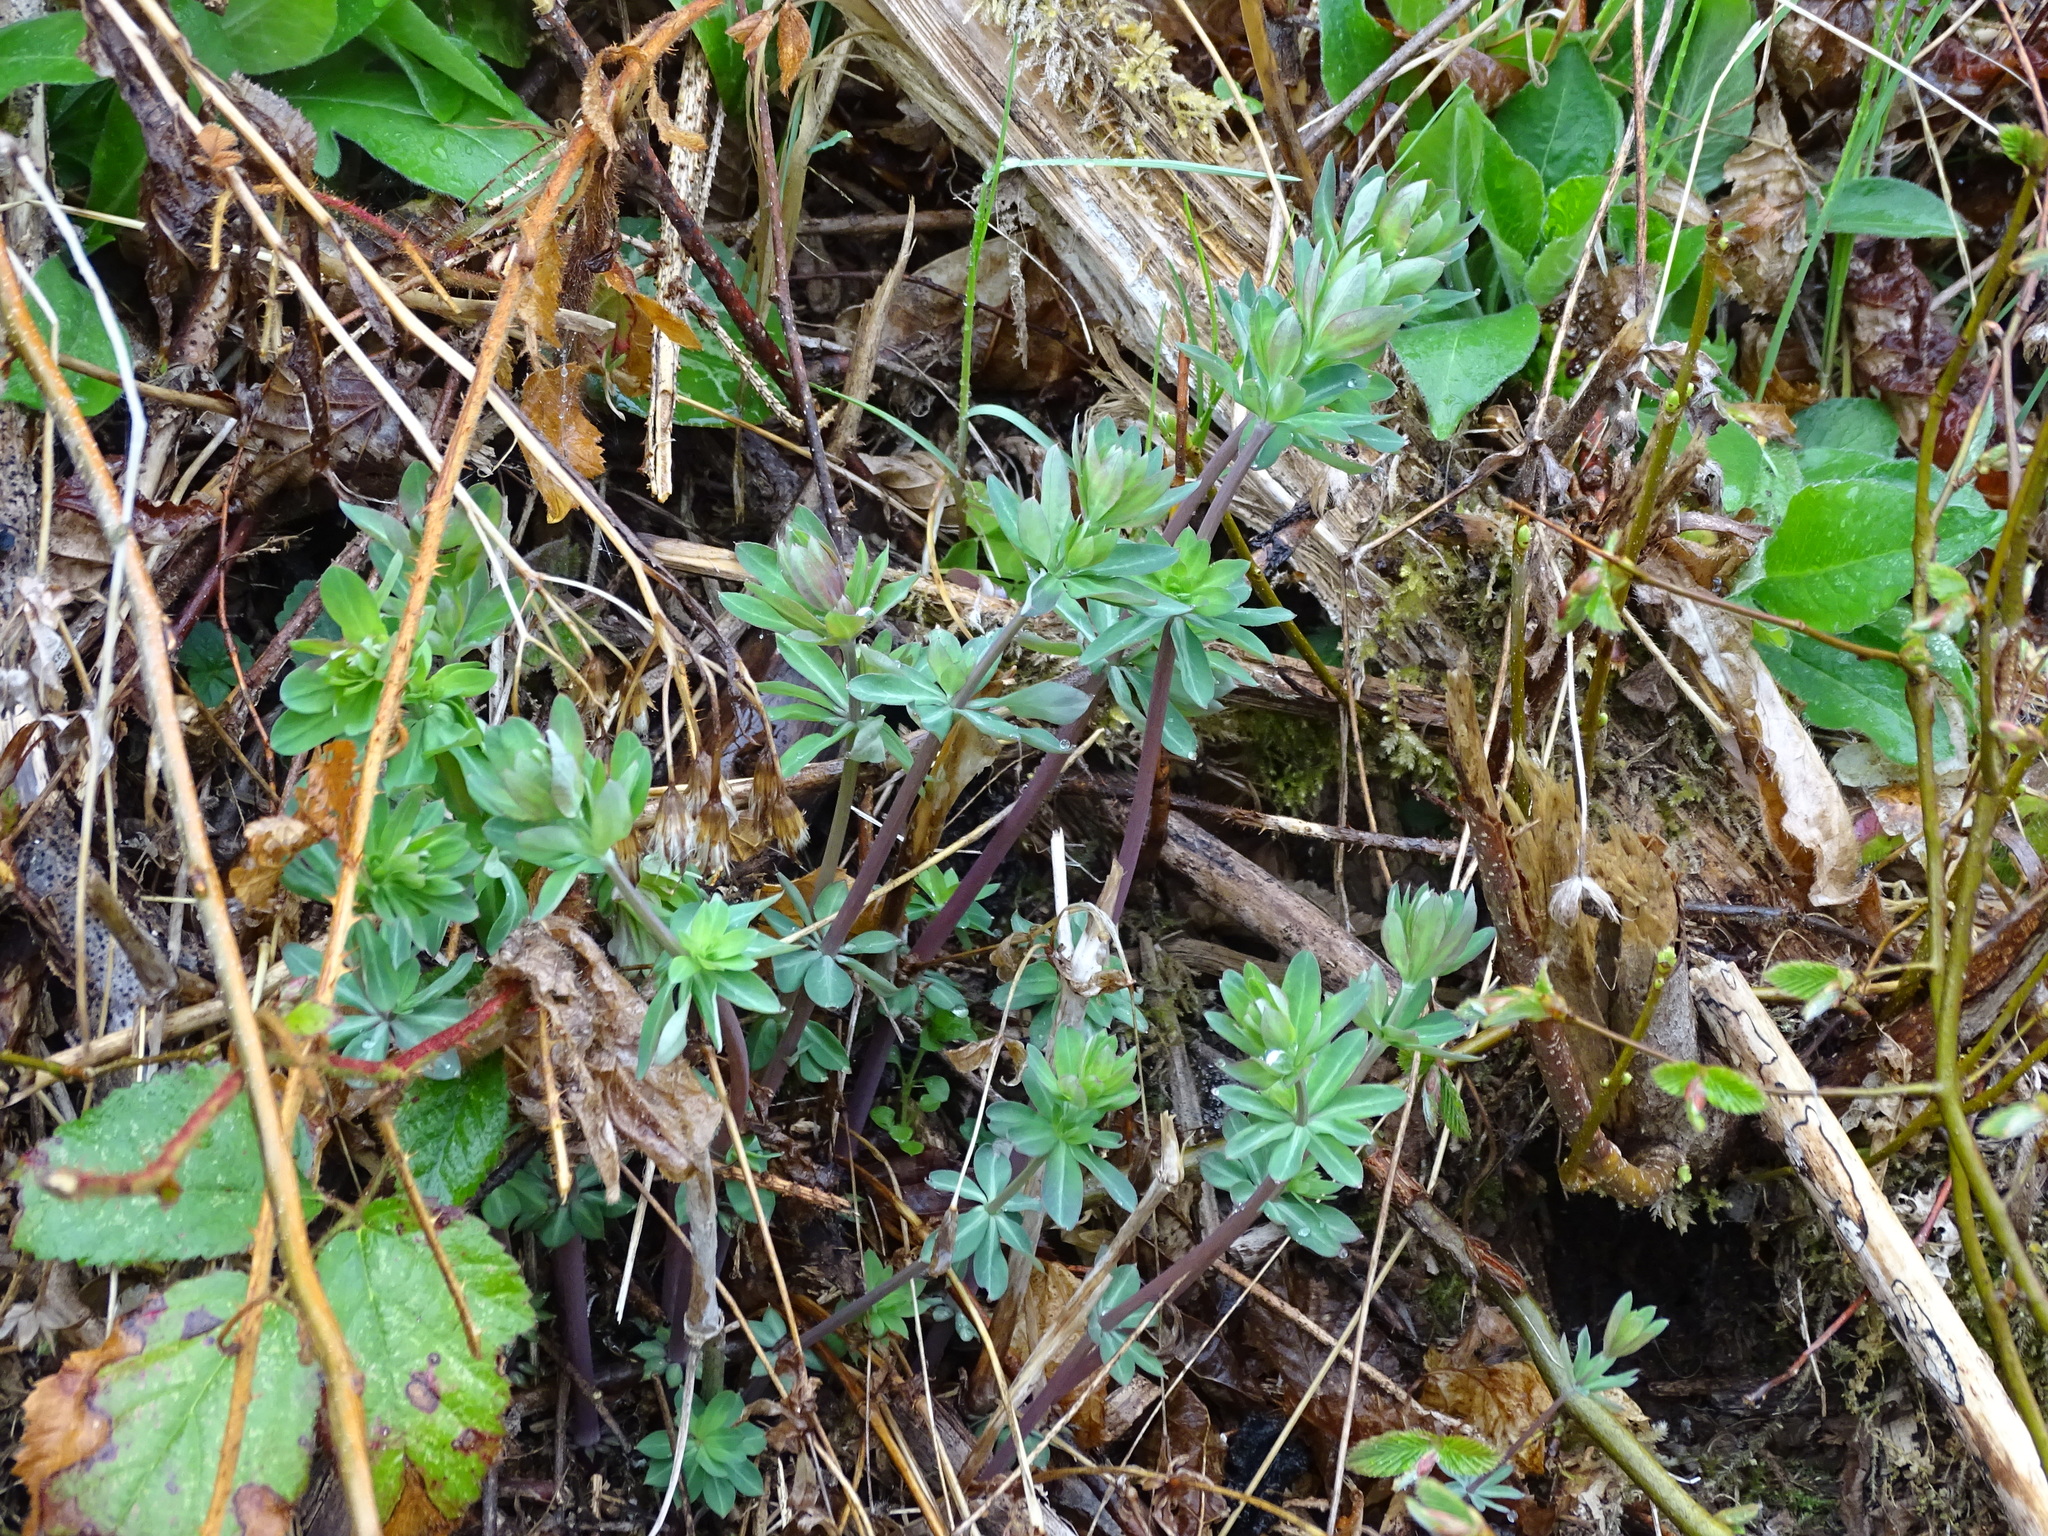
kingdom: Plantae
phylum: Tracheophyta
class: Magnoliopsida
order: Gentianales
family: Rubiaceae
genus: Galium
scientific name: Galium sylvaticum
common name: Wood bedstraw
